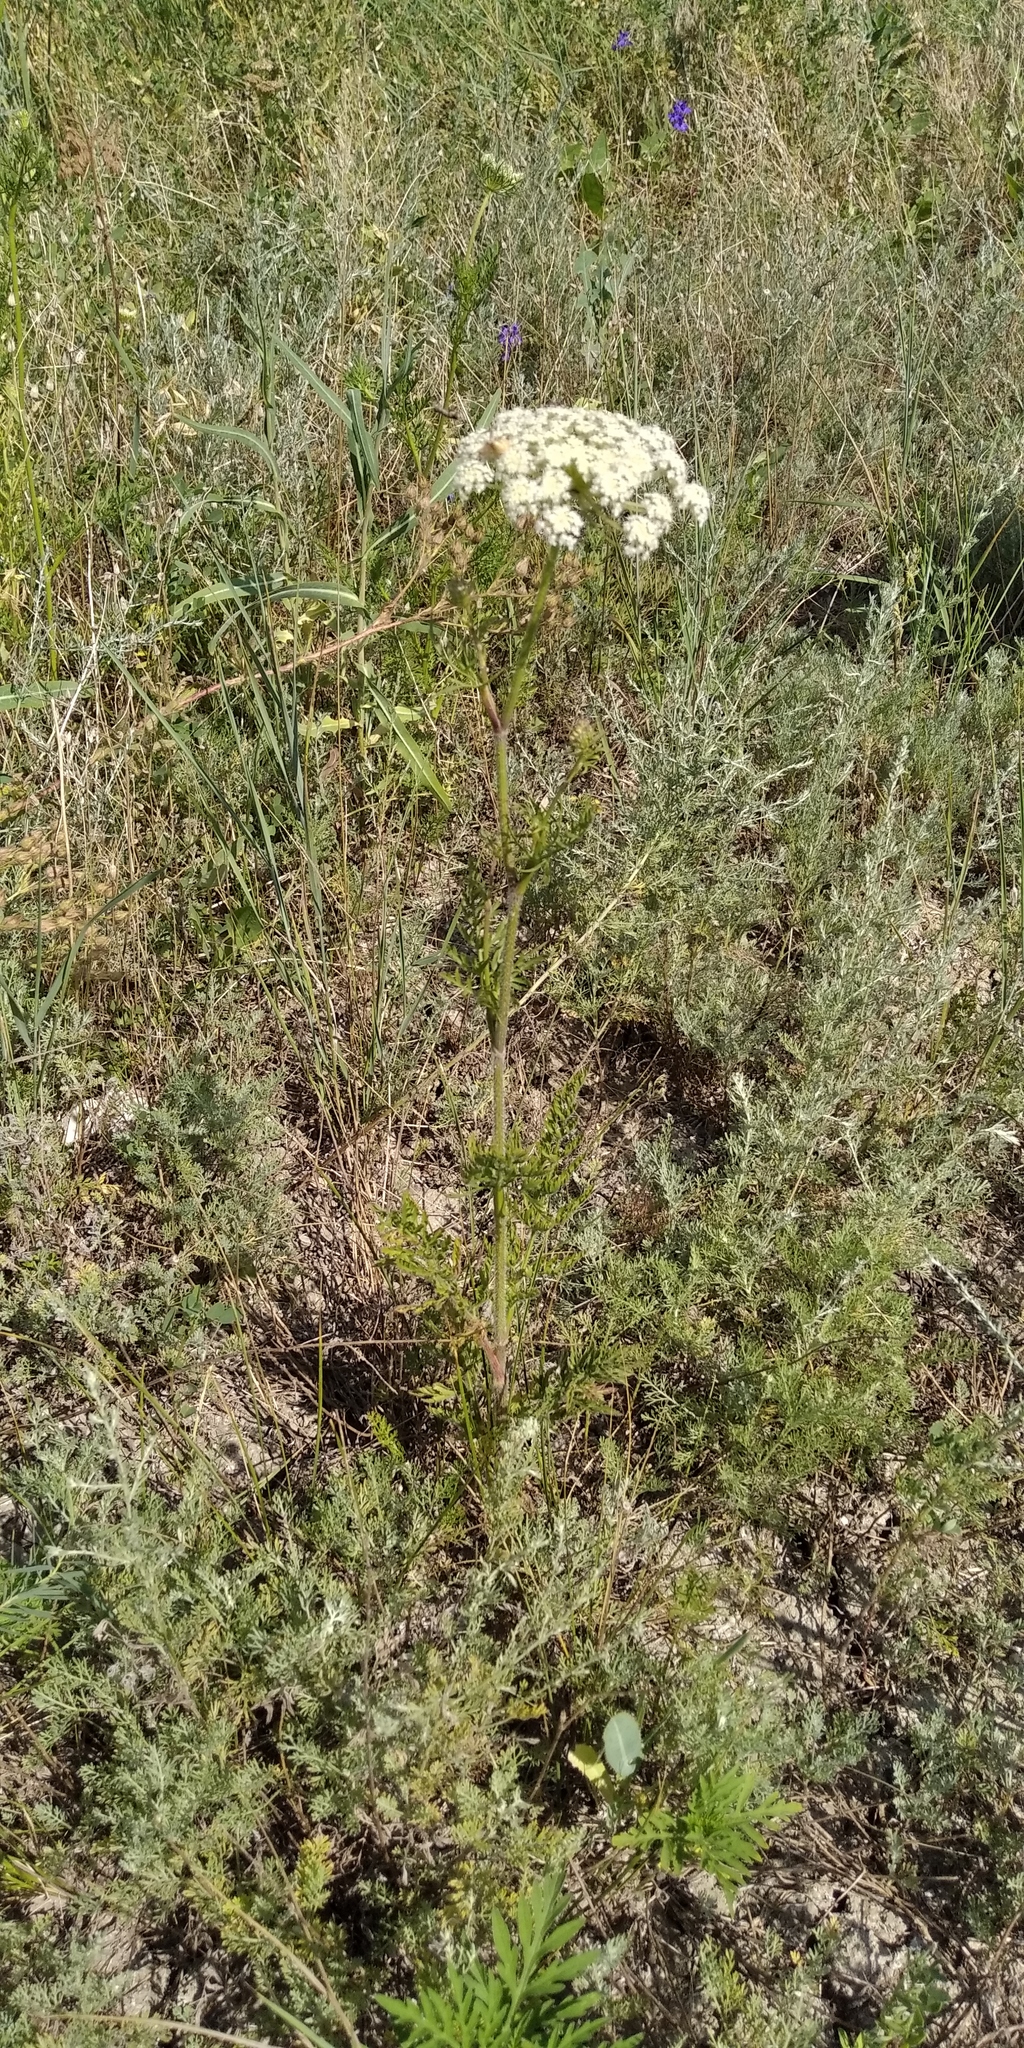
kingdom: Plantae
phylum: Tracheophyta
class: Magnoliopsida
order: Apiales
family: Apiaceae
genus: Daucus
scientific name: Daucus carota
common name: Wild carrot
